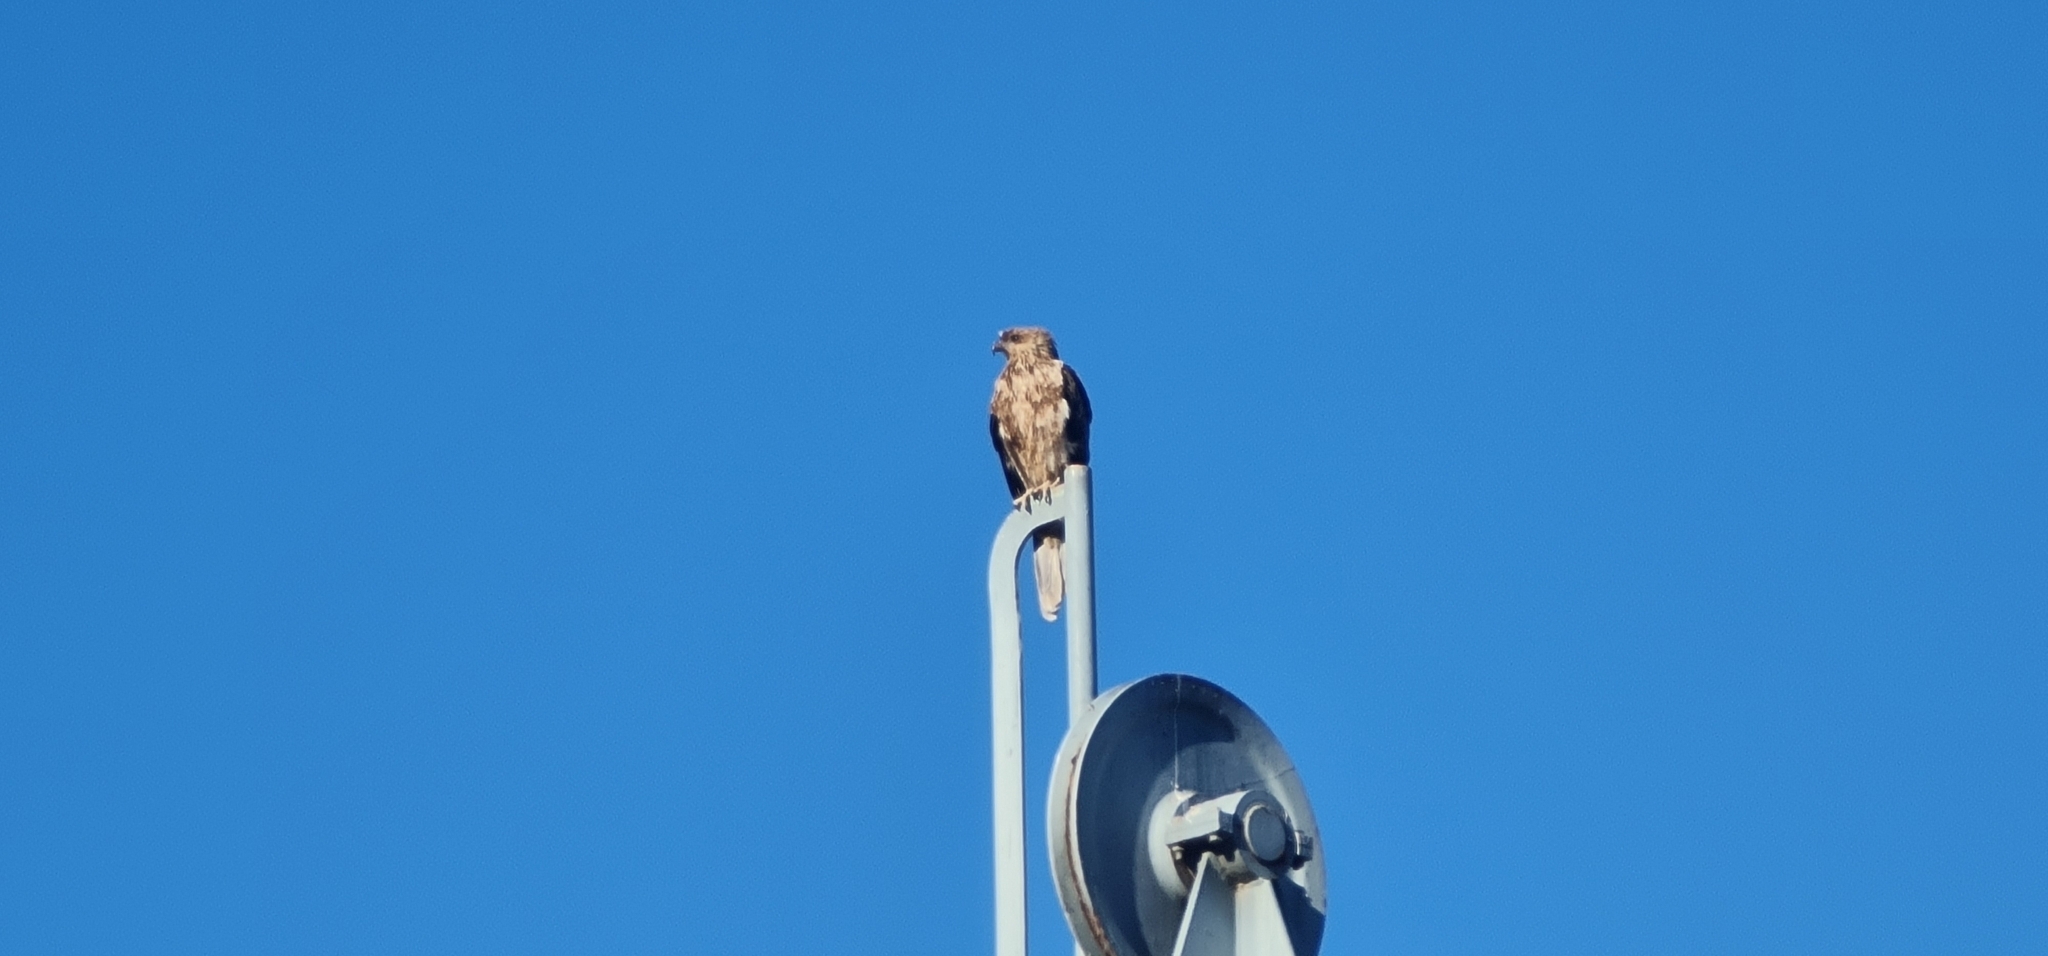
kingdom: Animalia
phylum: Chordata
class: Aves
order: Accipitriformes
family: Accipitridae
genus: Haliastur
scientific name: Haliastur sphenurus
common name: Whistling kite
